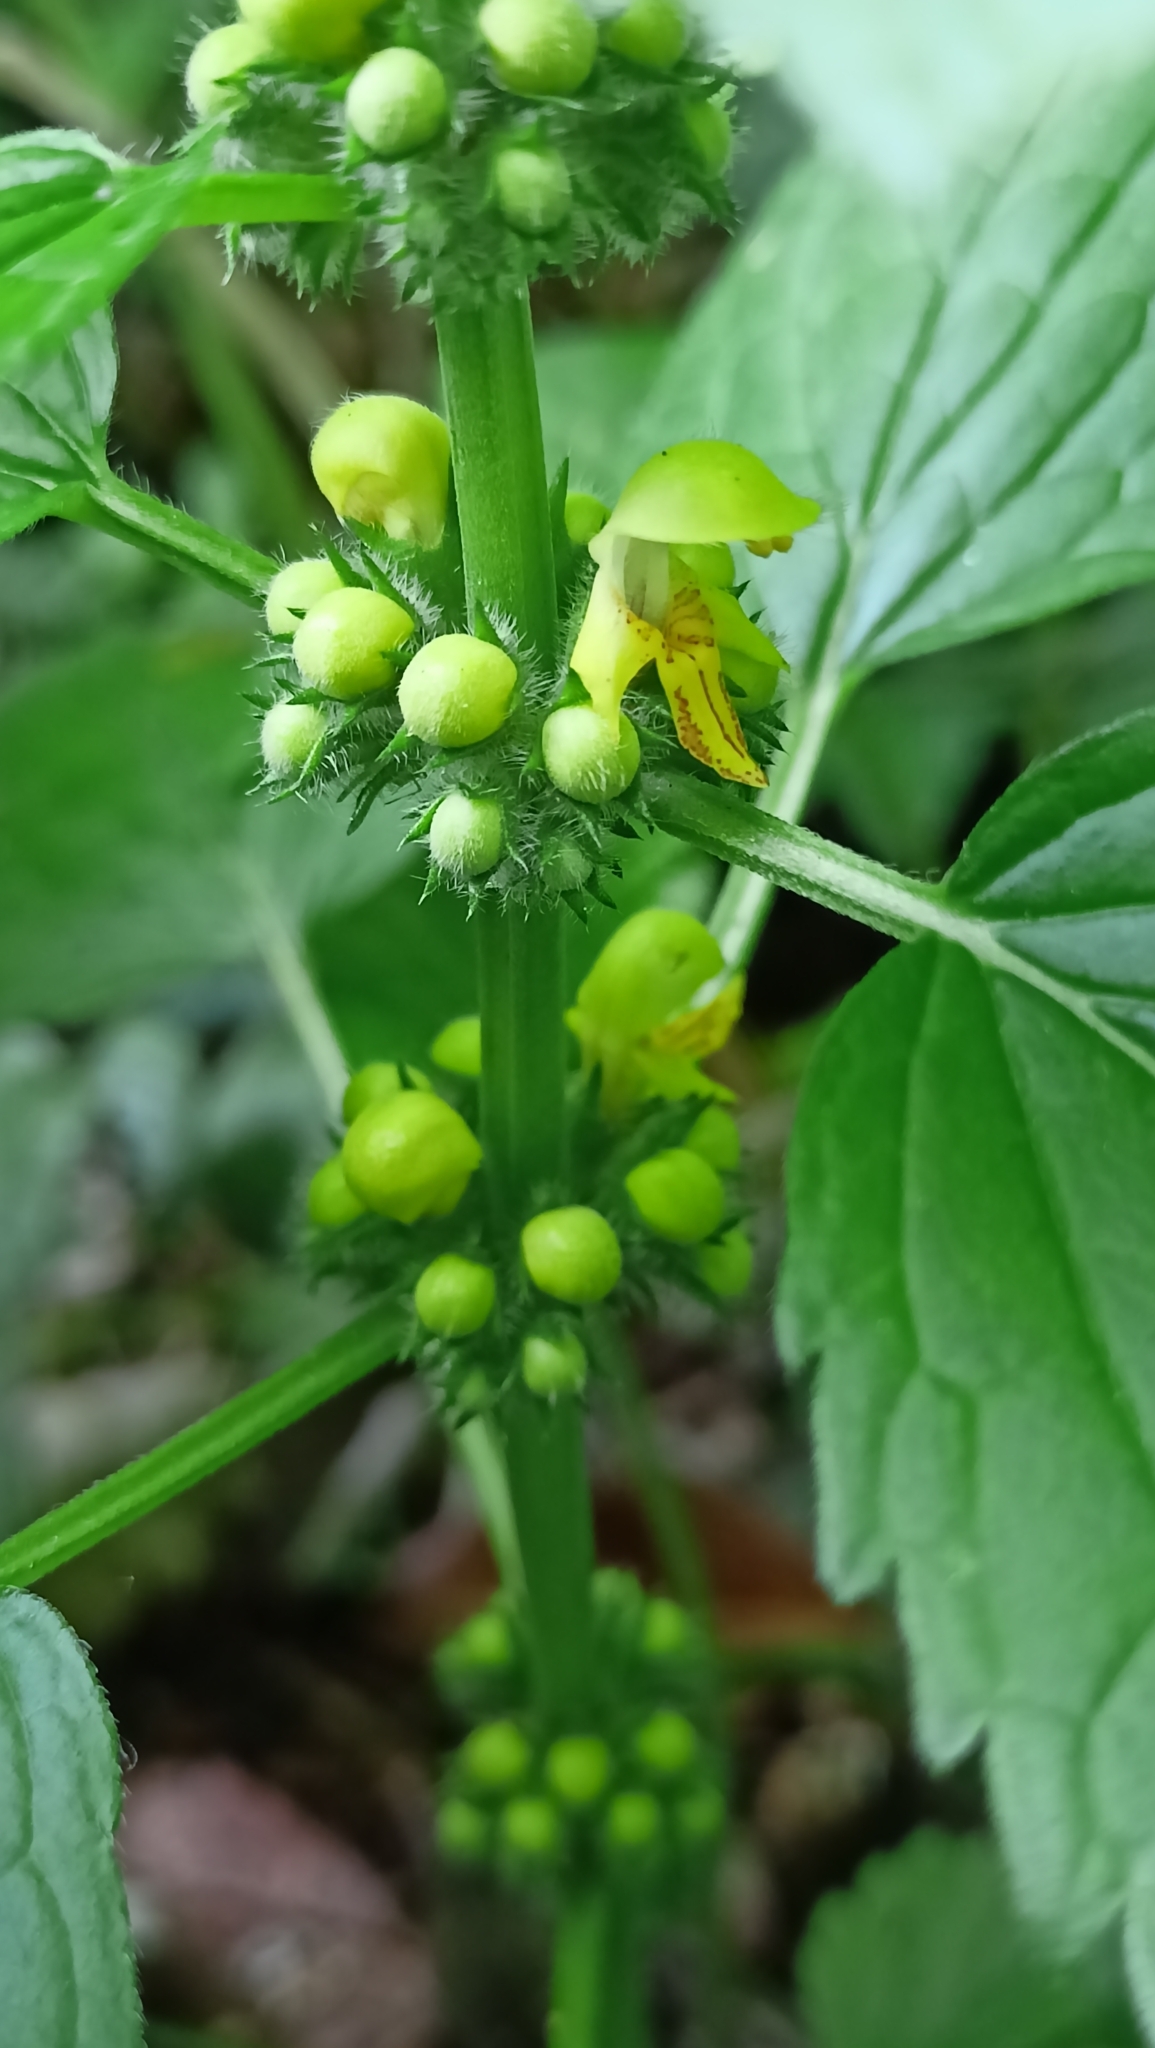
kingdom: Plantae
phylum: Tracheophyta
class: Magnoliopsida
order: Lamiales
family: Lamiaceae
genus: Lamium
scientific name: Lamium galeobdolon
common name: Yellow archangel
